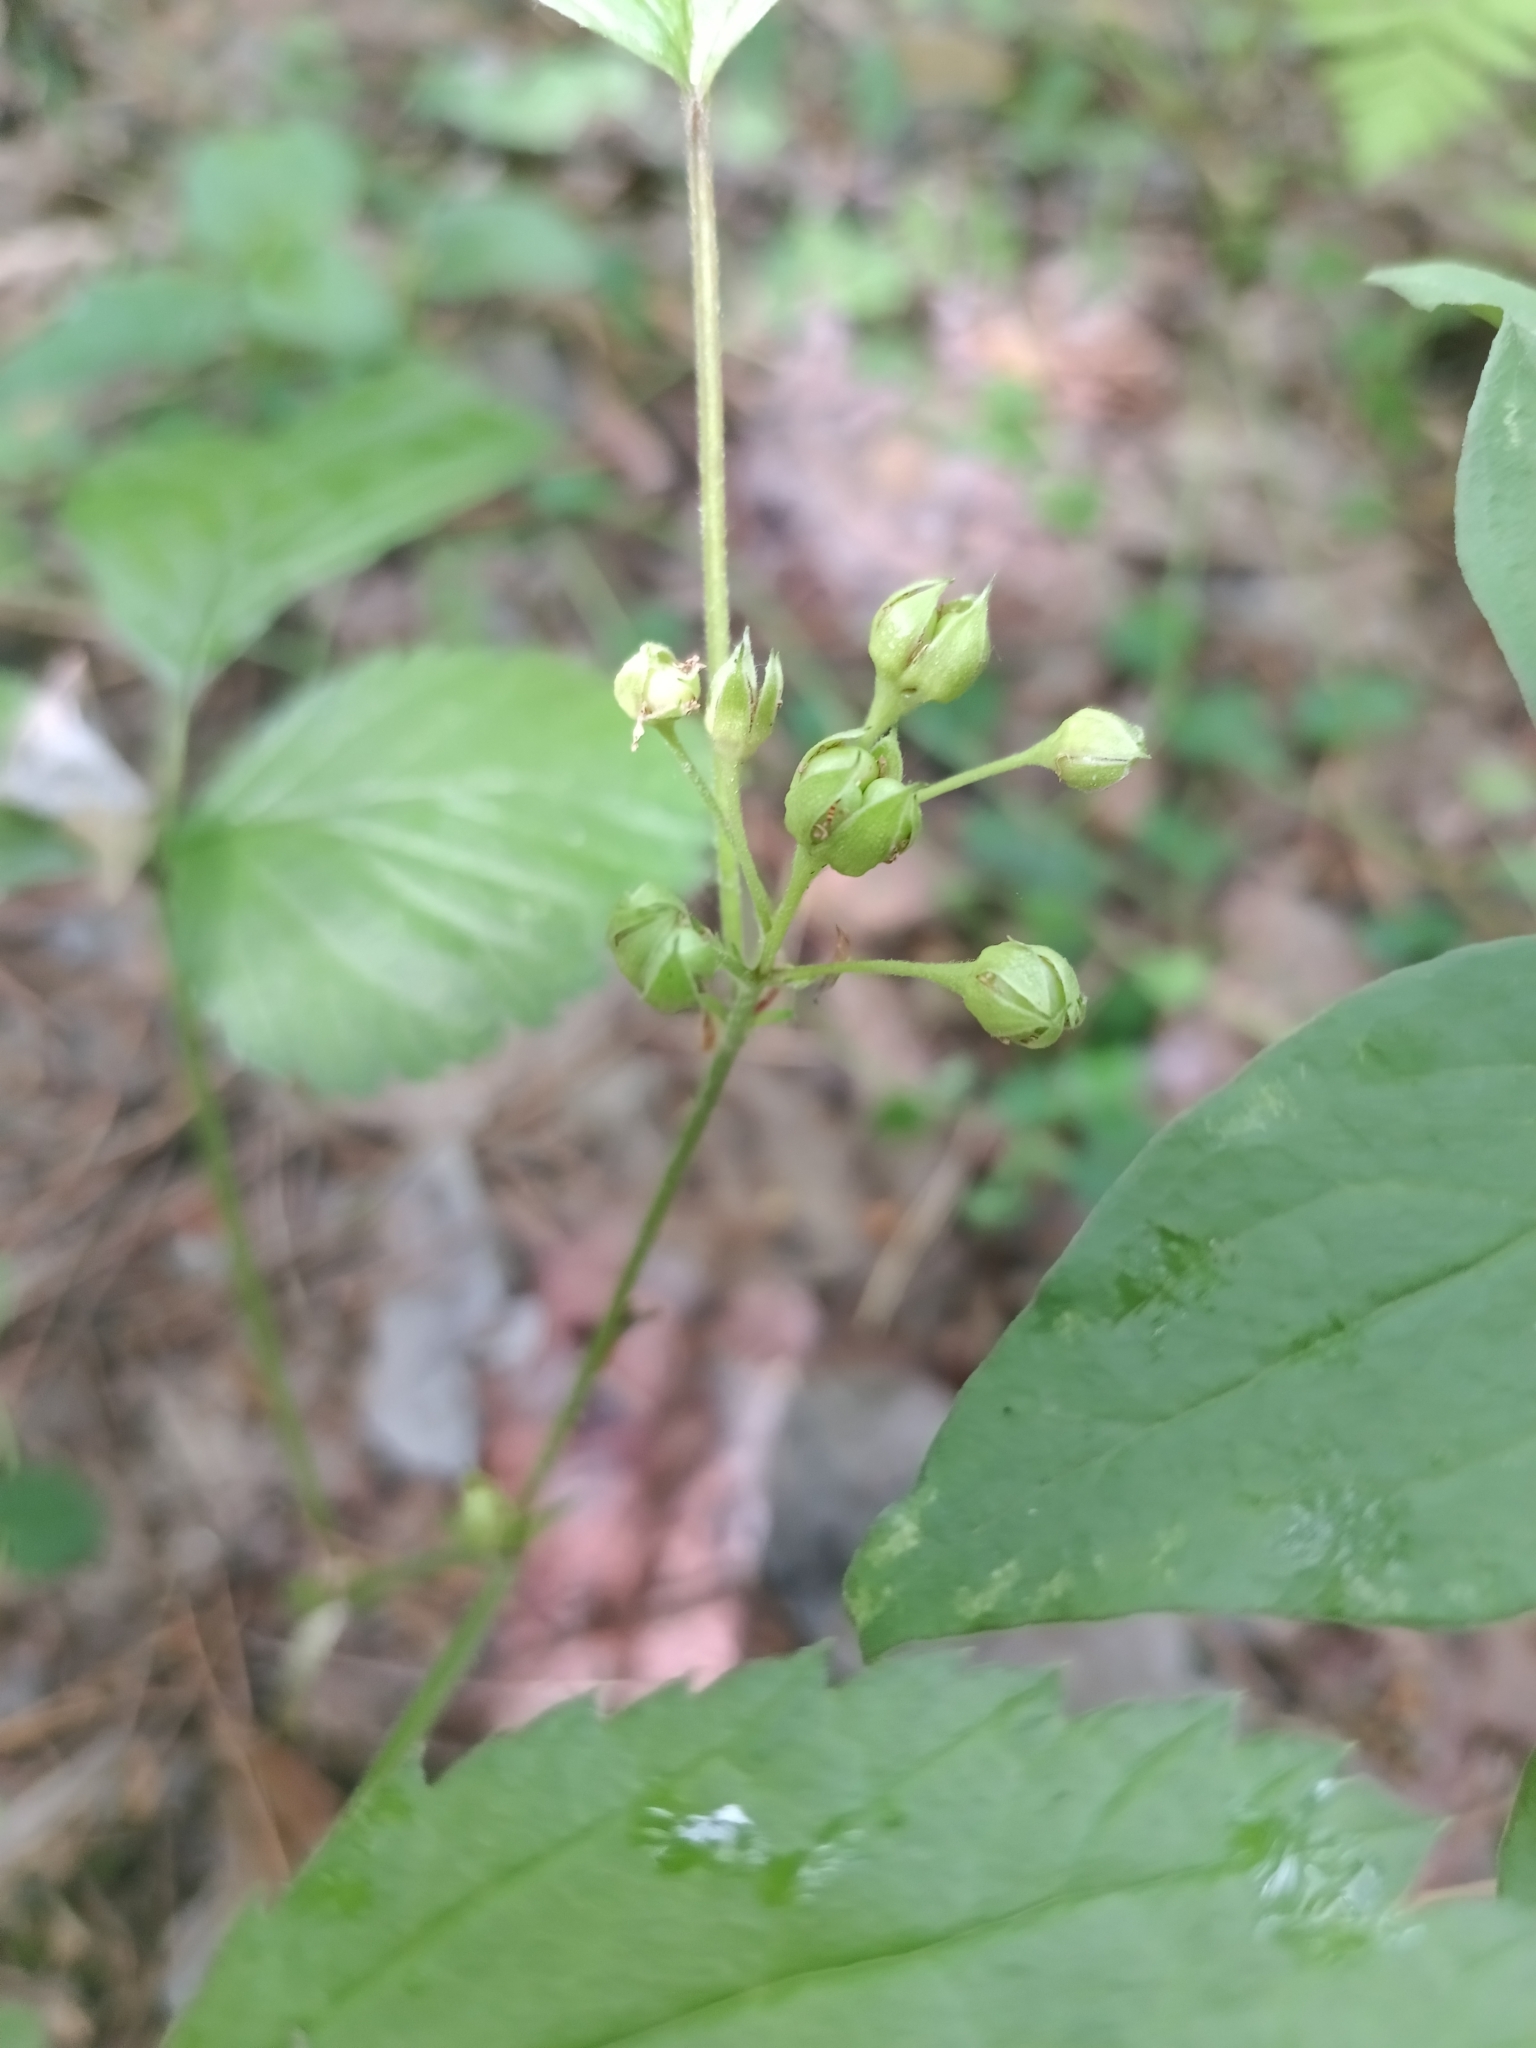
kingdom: Plantae
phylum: Tracheophyta
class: Magnoliopsida
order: Rosales
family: Rosaceae
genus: Rubus
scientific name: Rubus saxatilis
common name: Stone bramble
